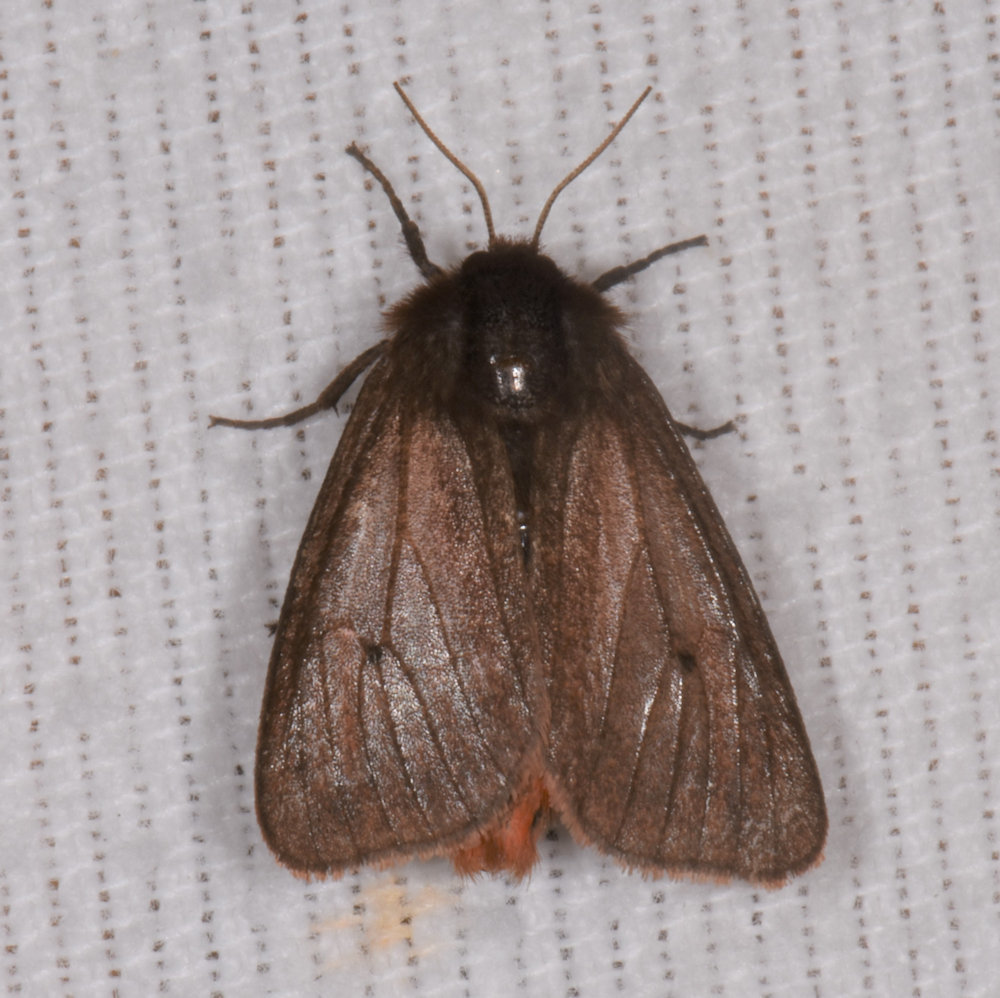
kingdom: Animalia
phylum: Arthropoda
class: Insecta
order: Lepidoptera
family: Erebidae
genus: Phragmatobia
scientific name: Phragmatobia fuliginosa
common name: Ruby tiger
